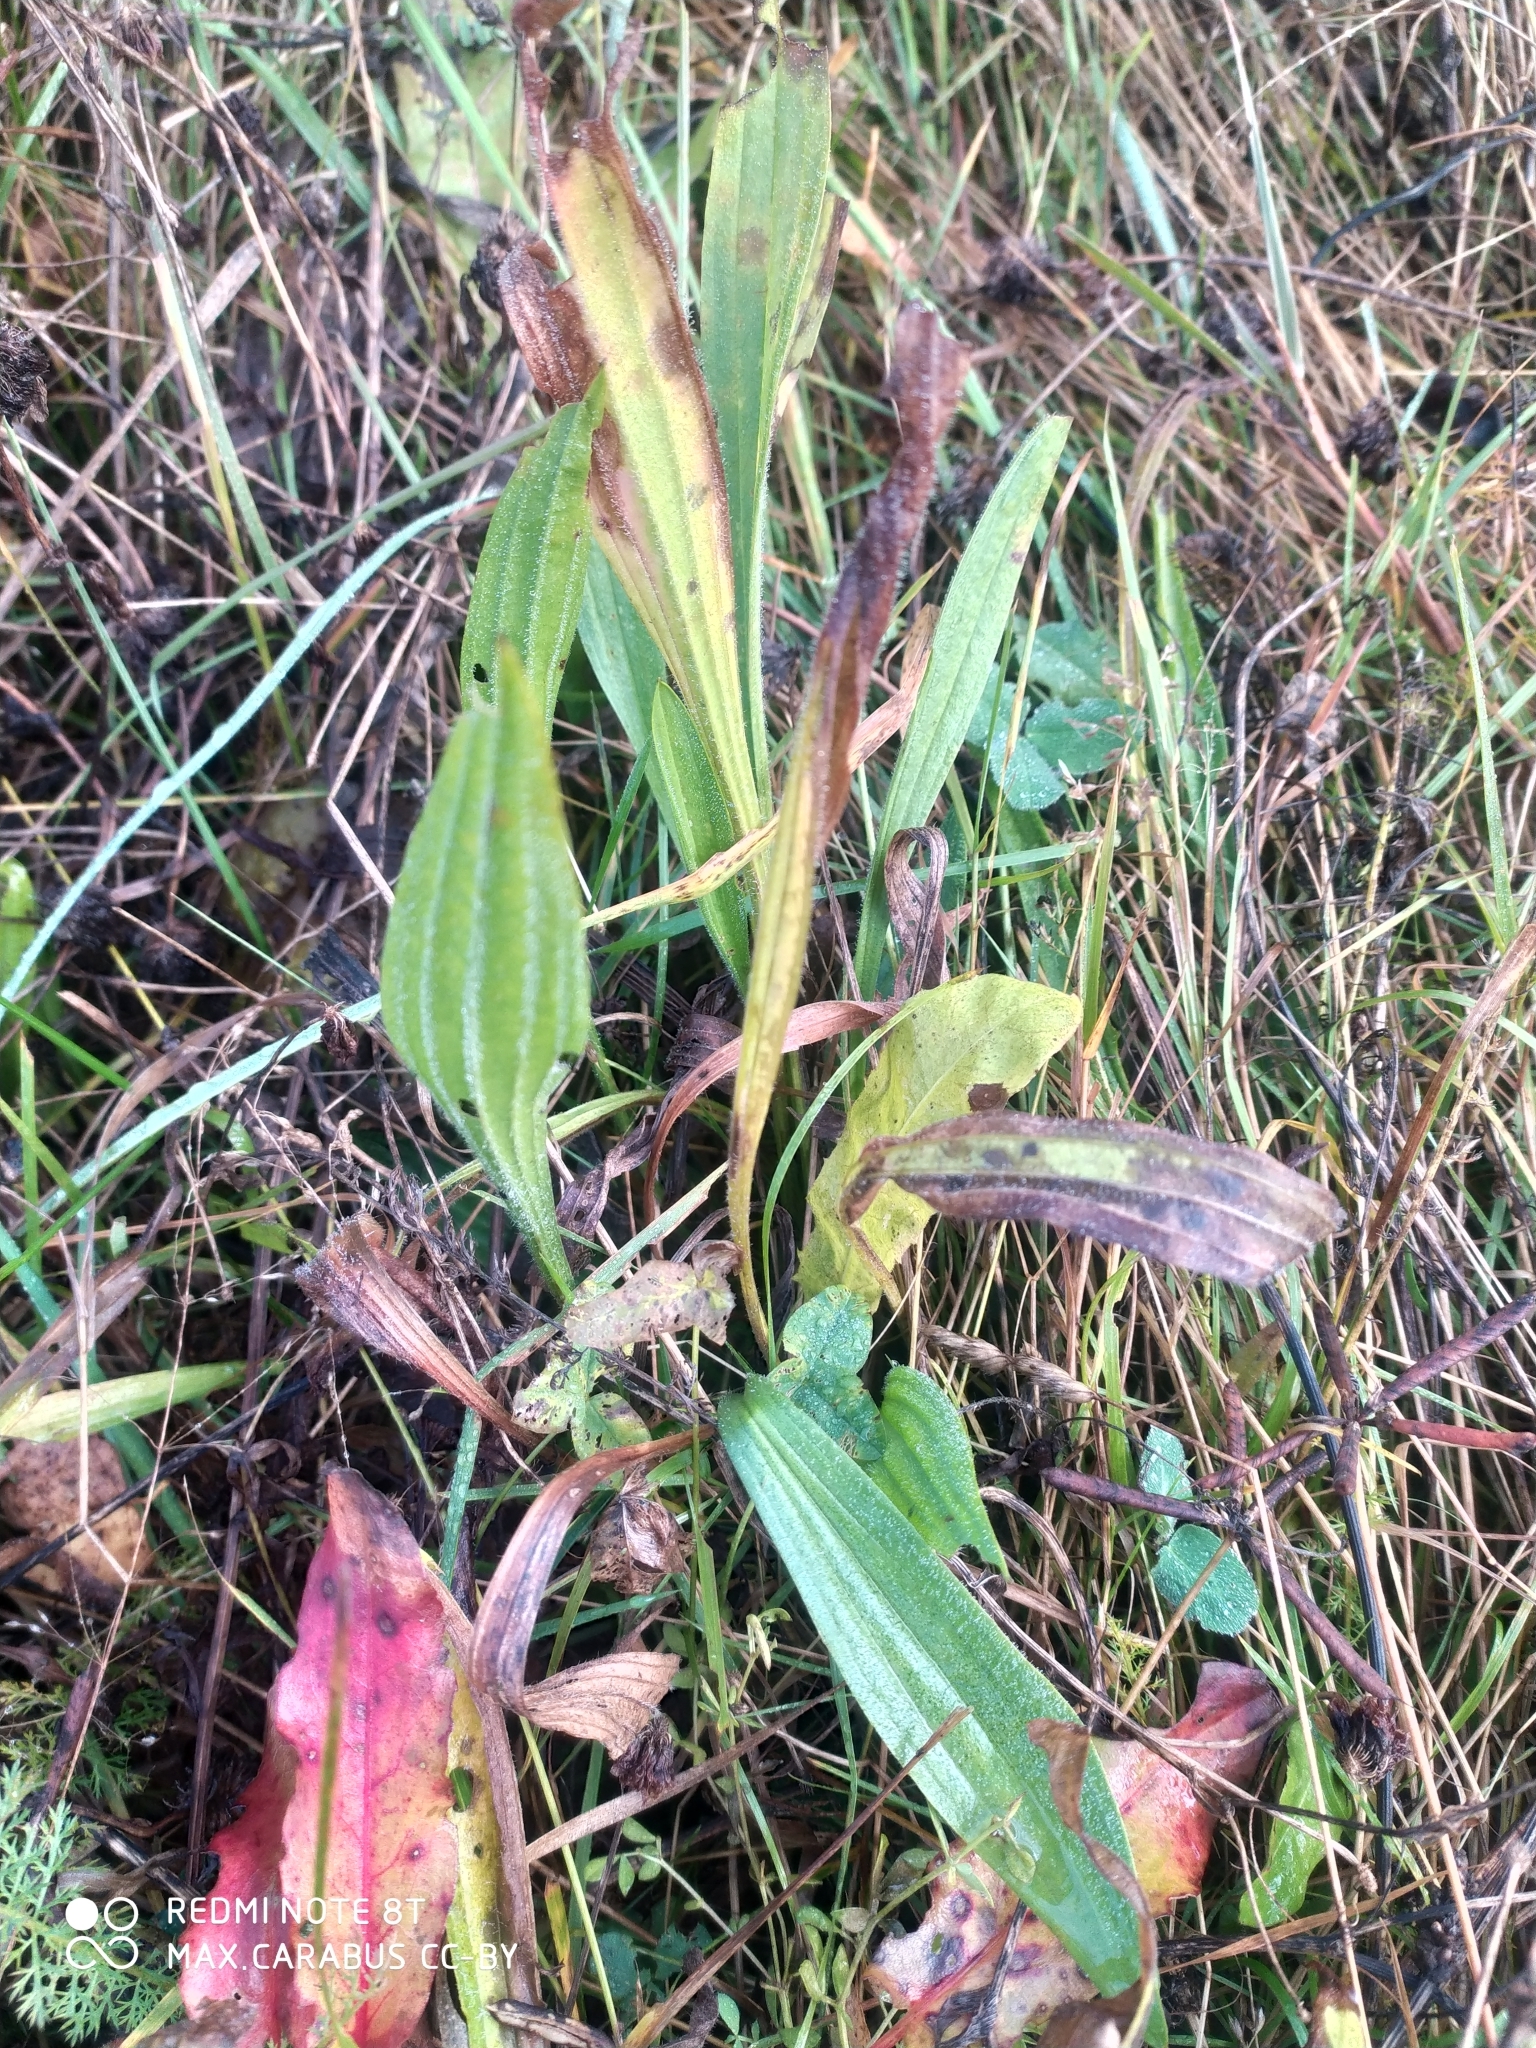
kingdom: Plantae
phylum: Tracheophyta
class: Magnoliopsida
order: Lamiales
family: Plantaginaceae
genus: Plantago
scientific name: Plantago lanceolata
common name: Ribwort plantain
